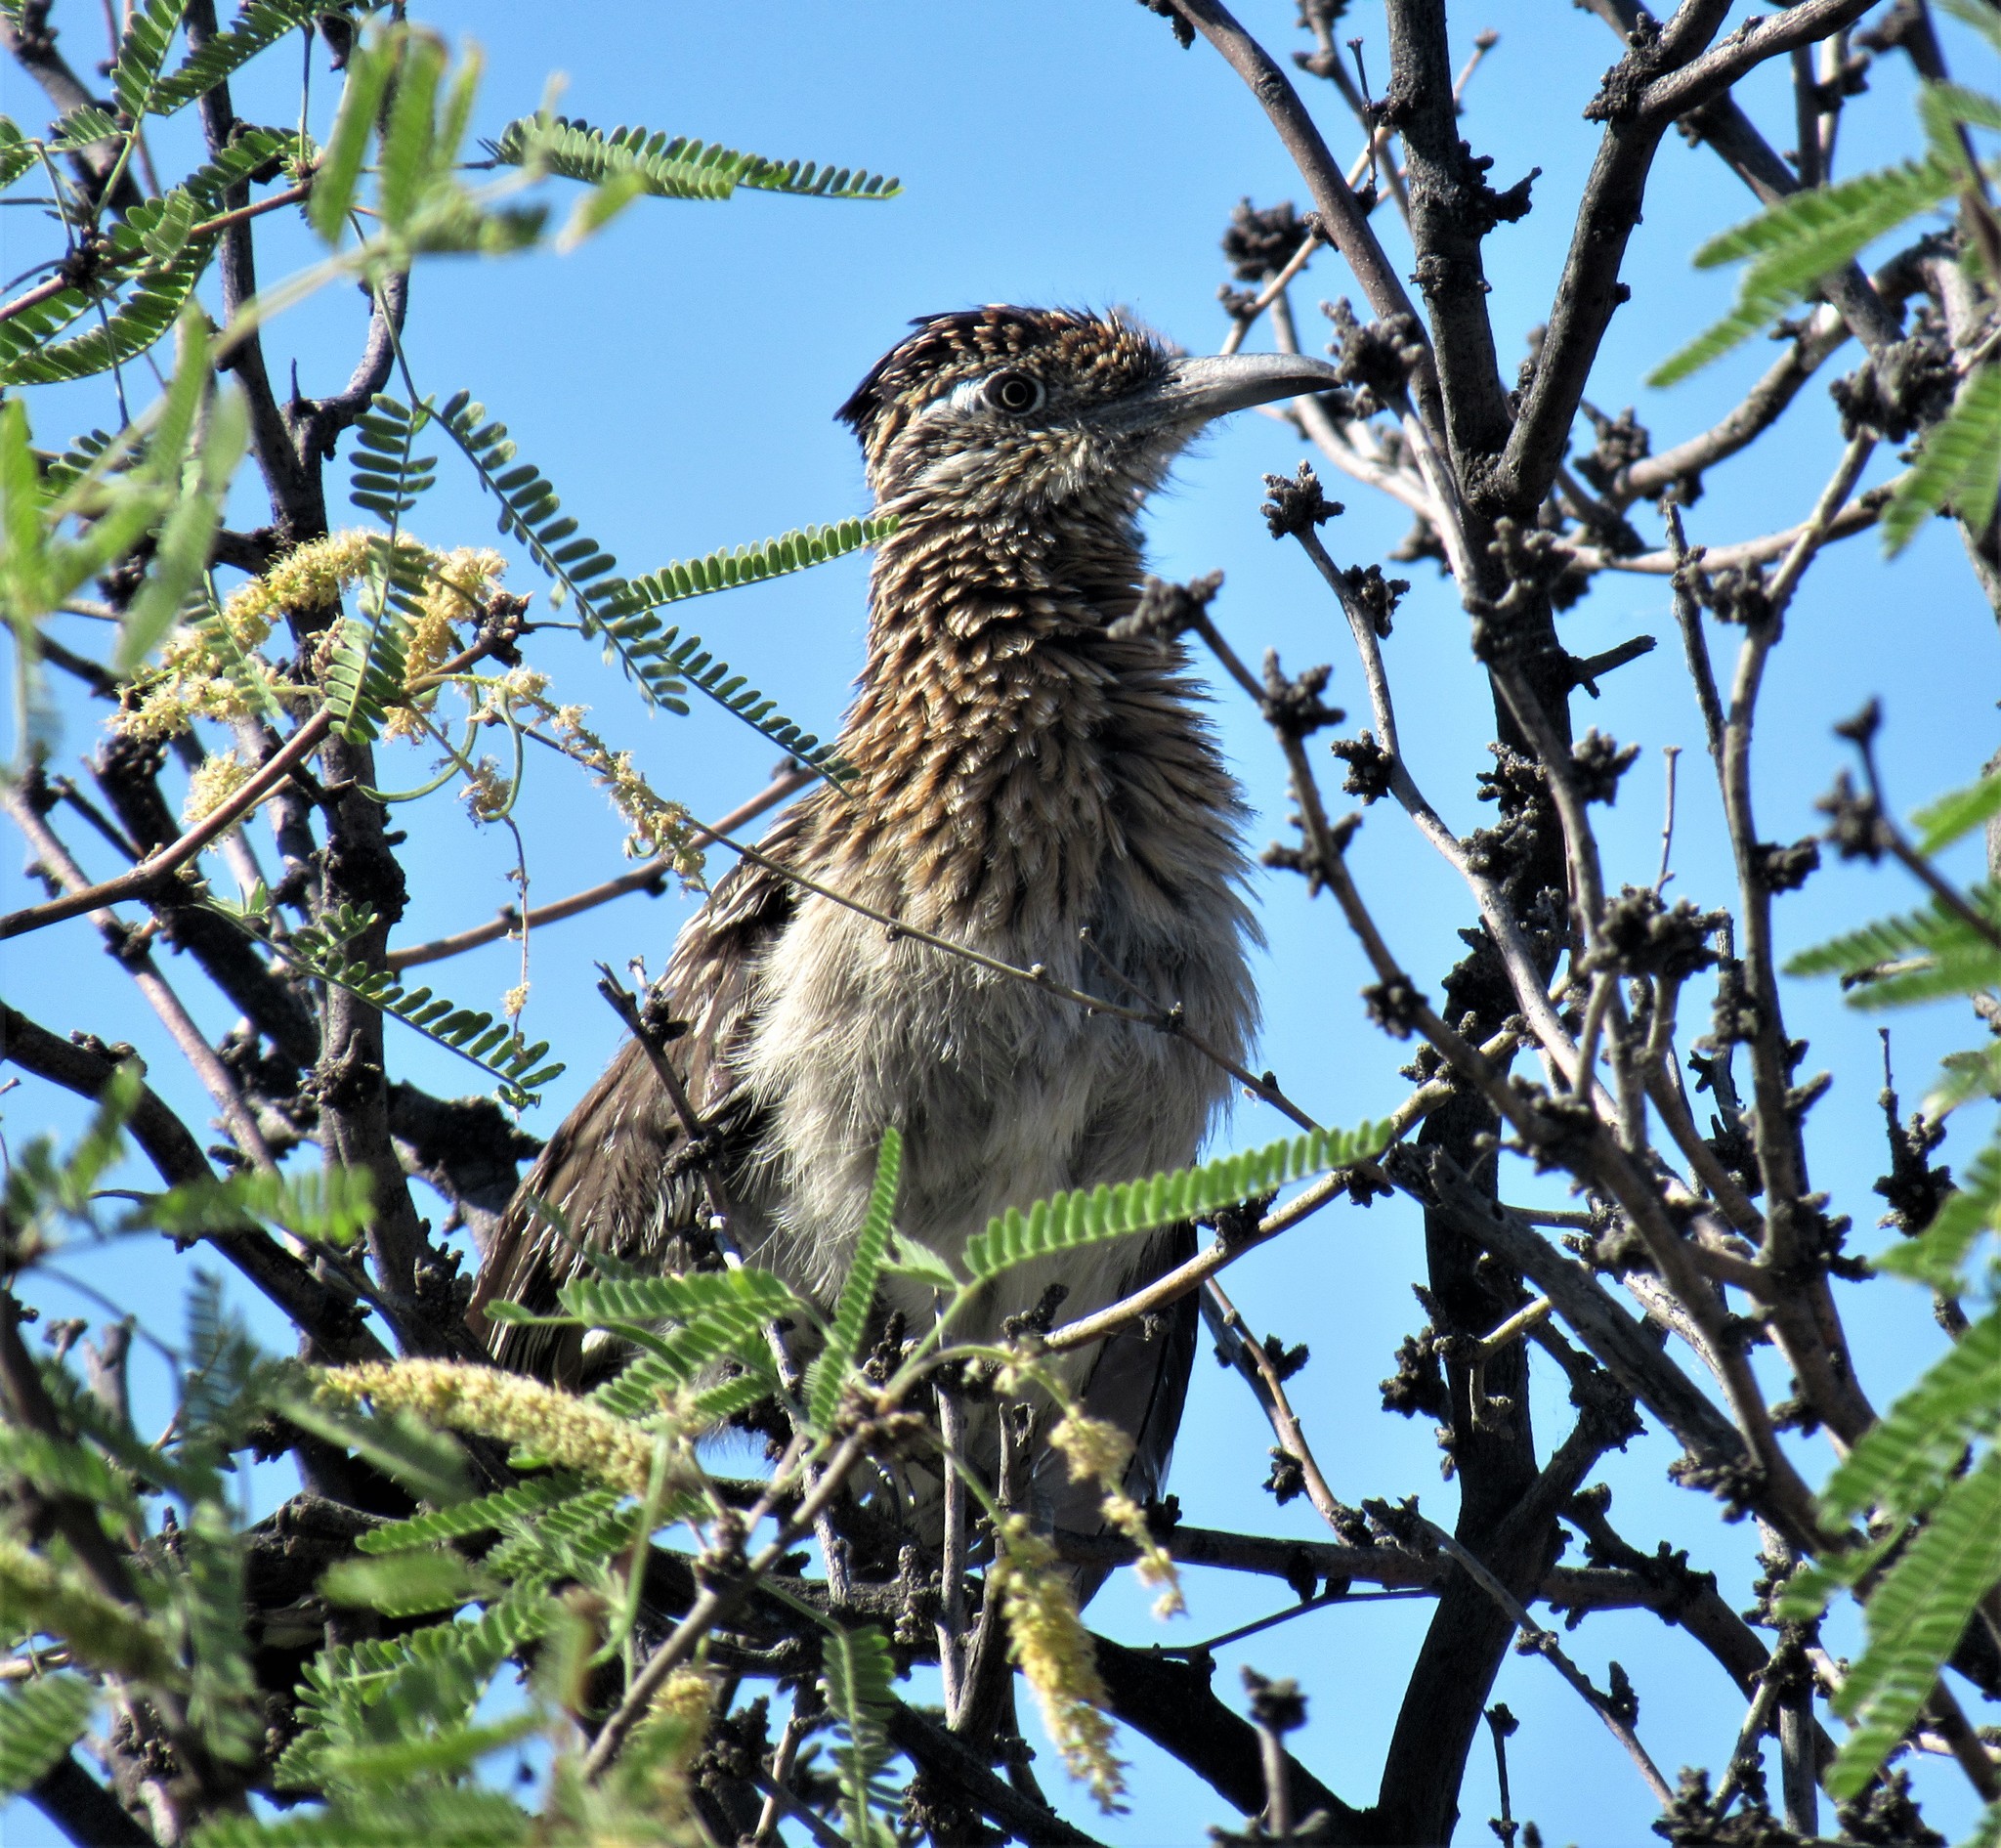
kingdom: Animalia
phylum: Chordata
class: Aves
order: Cuculiformes
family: Cuculidae
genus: Geococcyx
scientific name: Geococcyx californianus
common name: Greater roadrunner
